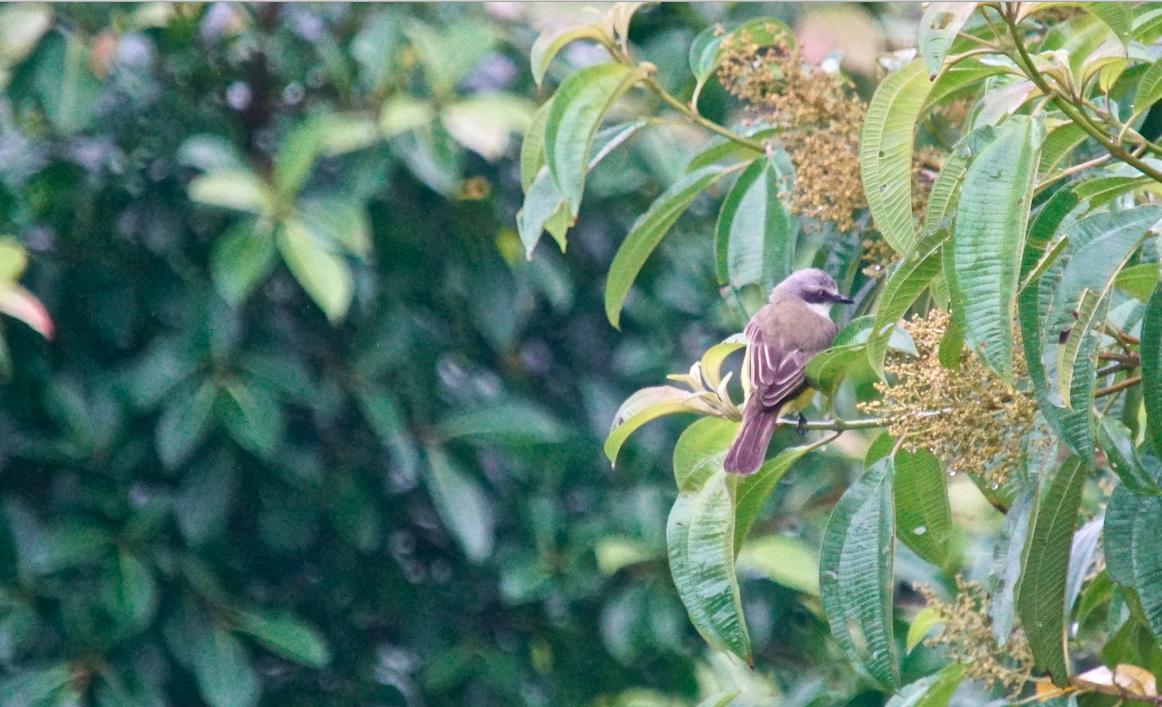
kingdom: Animalia
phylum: Chordata
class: Aves
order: Passeriformes
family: Tyrannidae
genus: Myiozetetes
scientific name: Myiozetetes granadensis
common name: Gray-capped flycatcher
